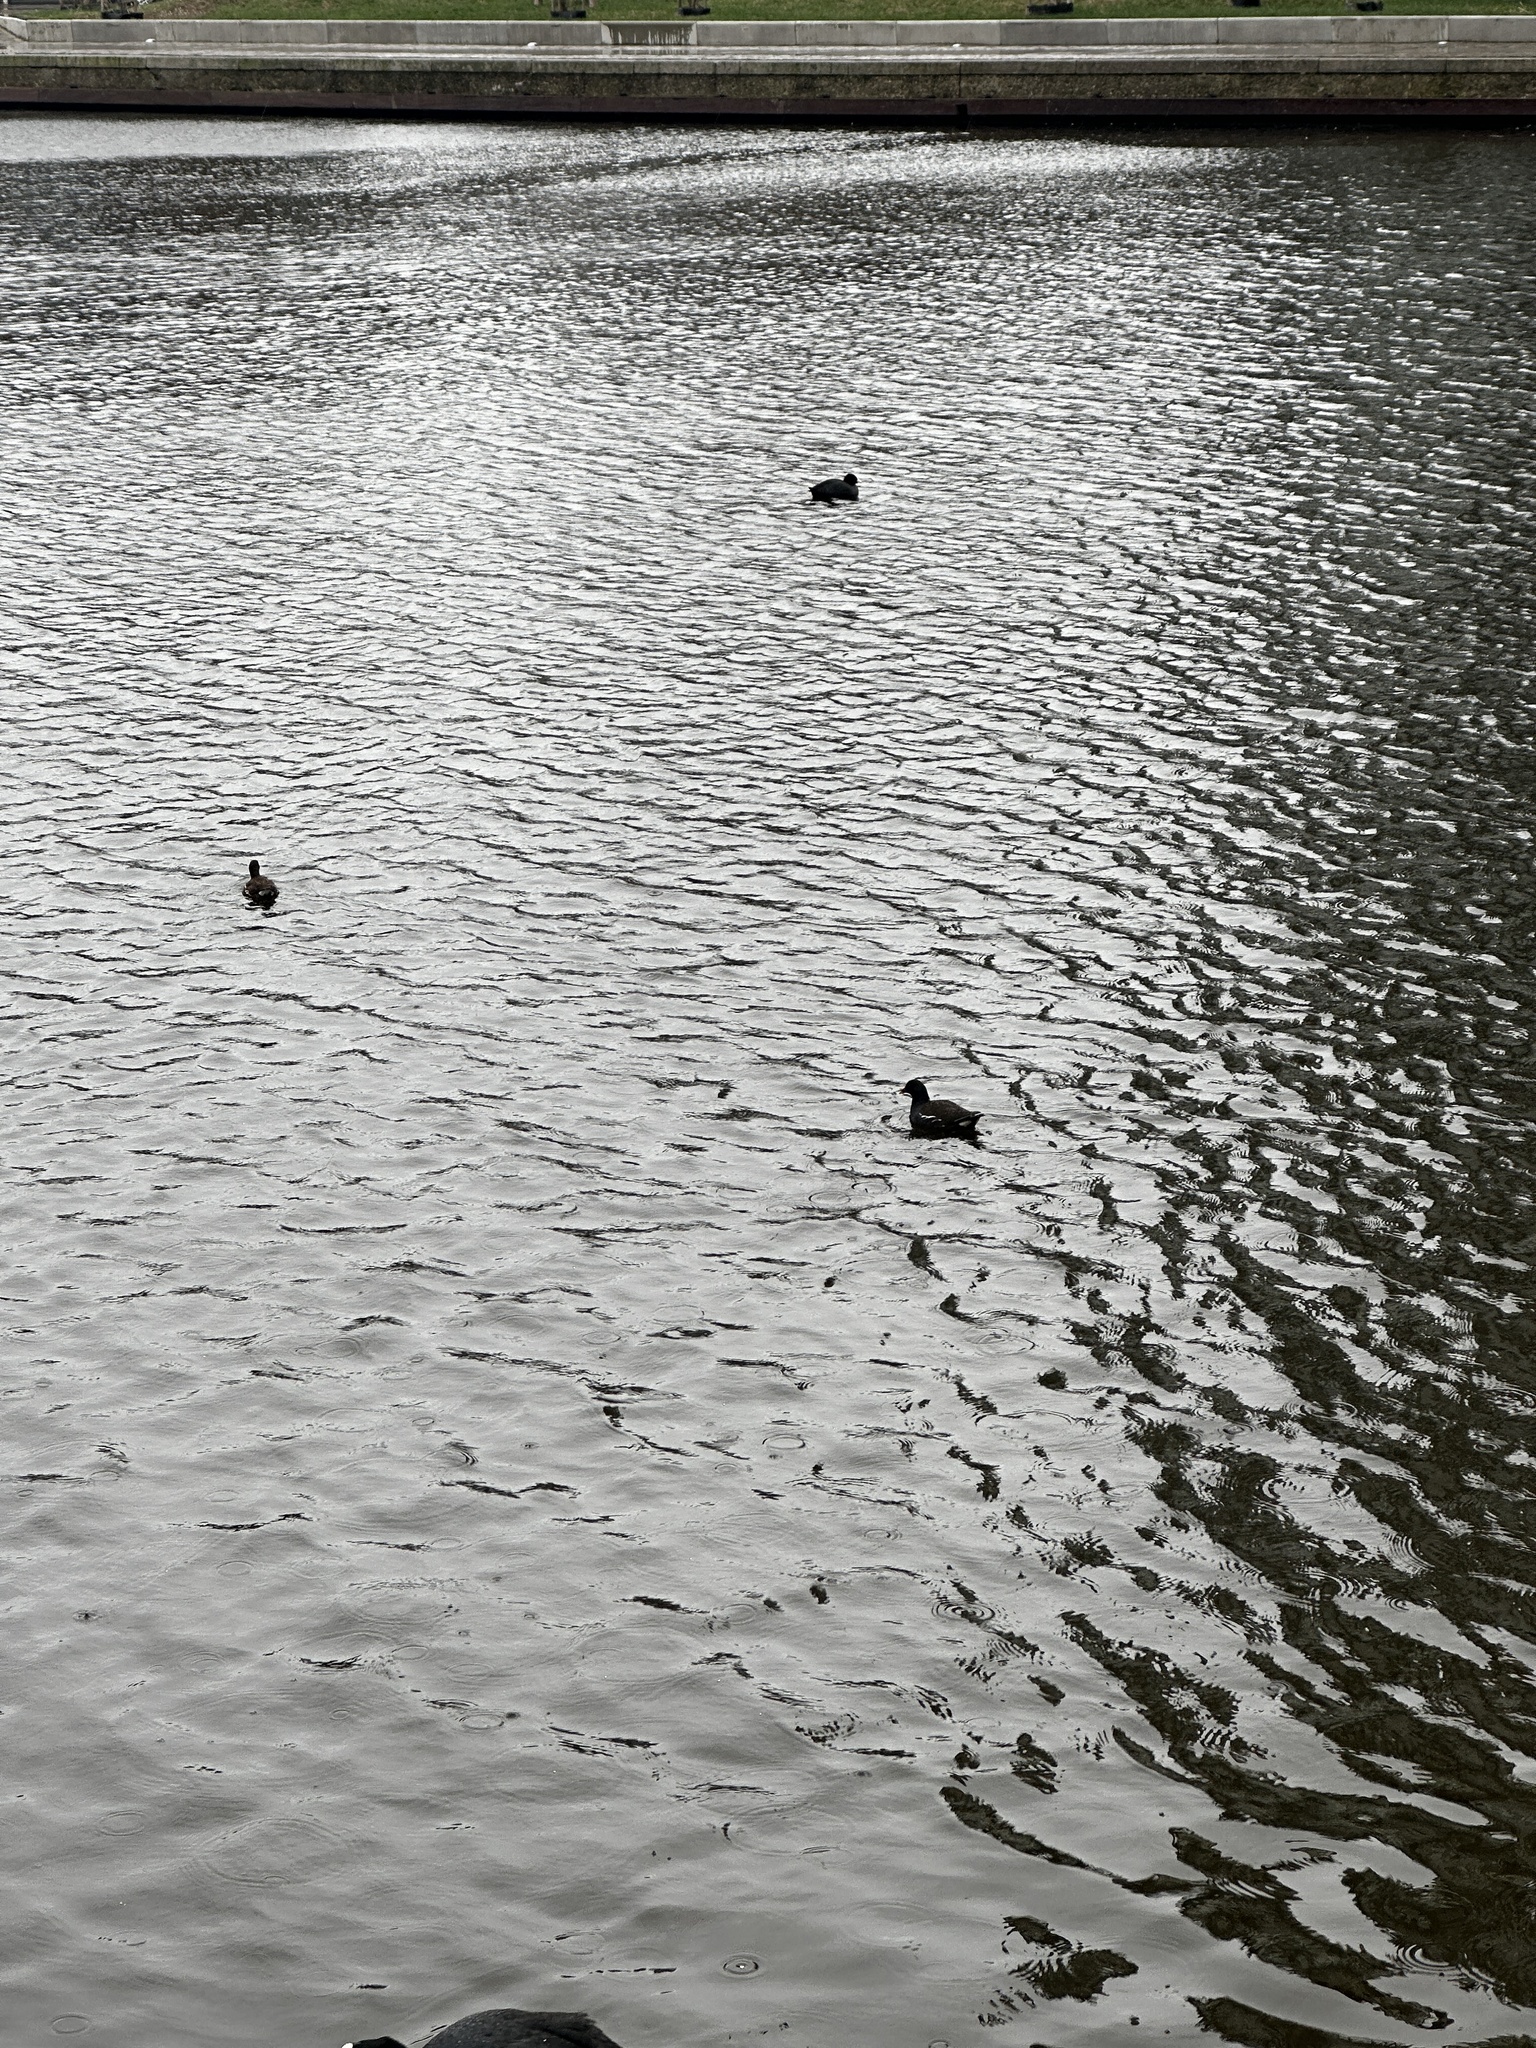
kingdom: Animalia
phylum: Chordata
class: Aves
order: Gruiformes
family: Rallidae
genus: Gallinula
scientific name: Gallinula chloropus
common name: Common moorhen
